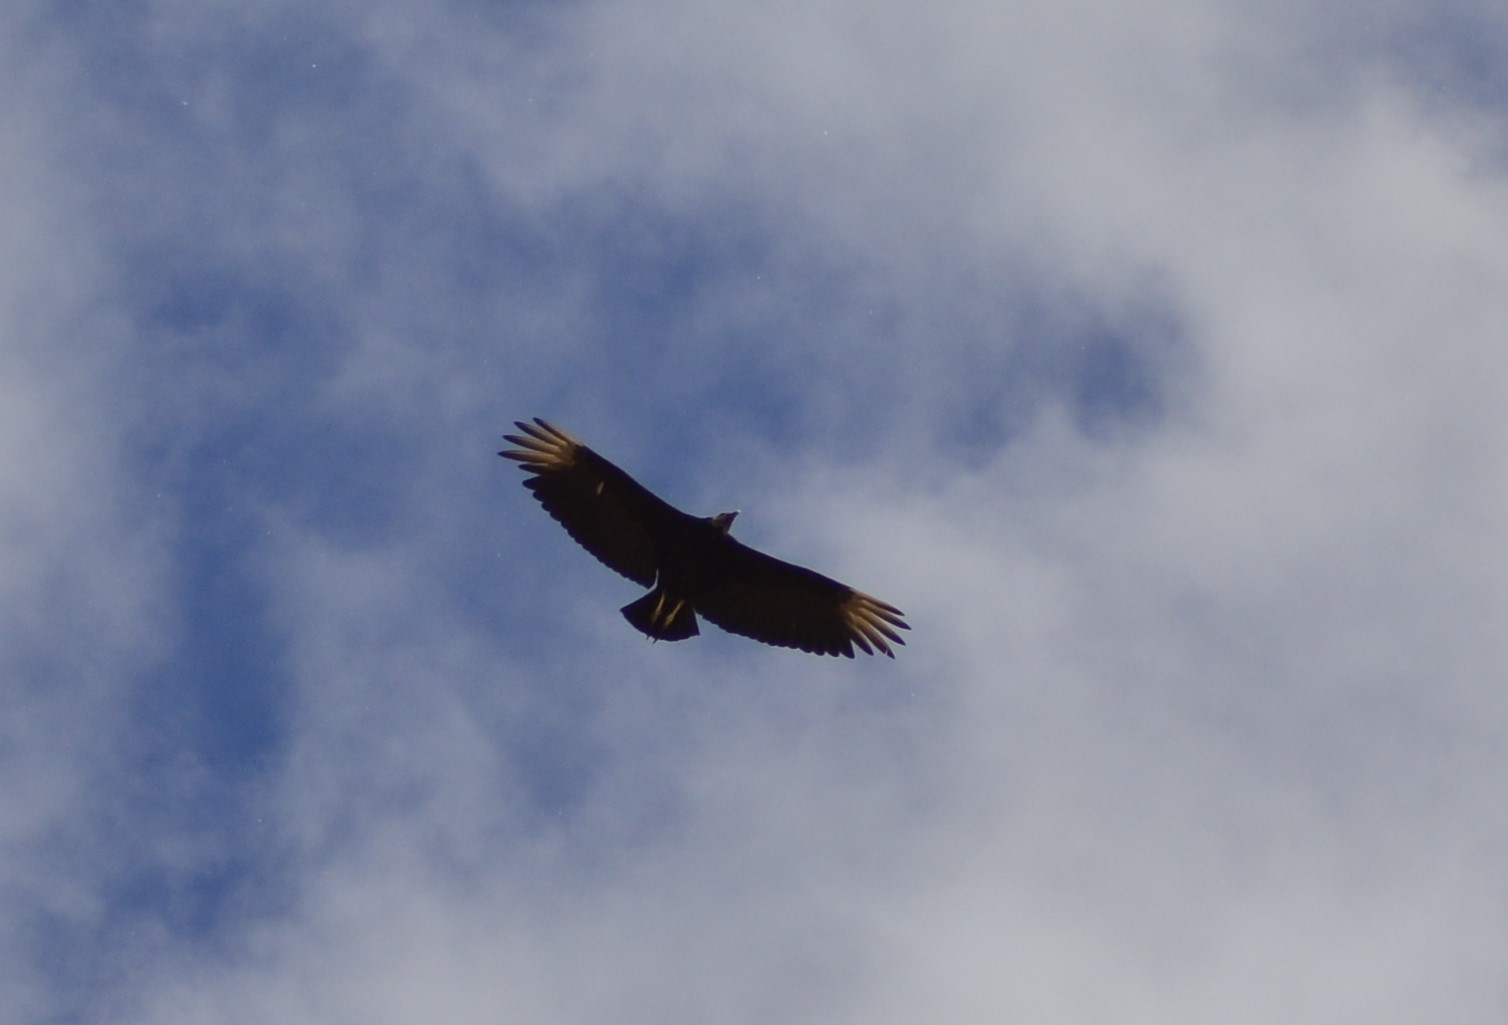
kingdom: Animalia
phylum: Chordata
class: Aves
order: Accipitriformes
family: Cathartidae
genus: Coragyps
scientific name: Coragyps atratus
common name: Black vulture
